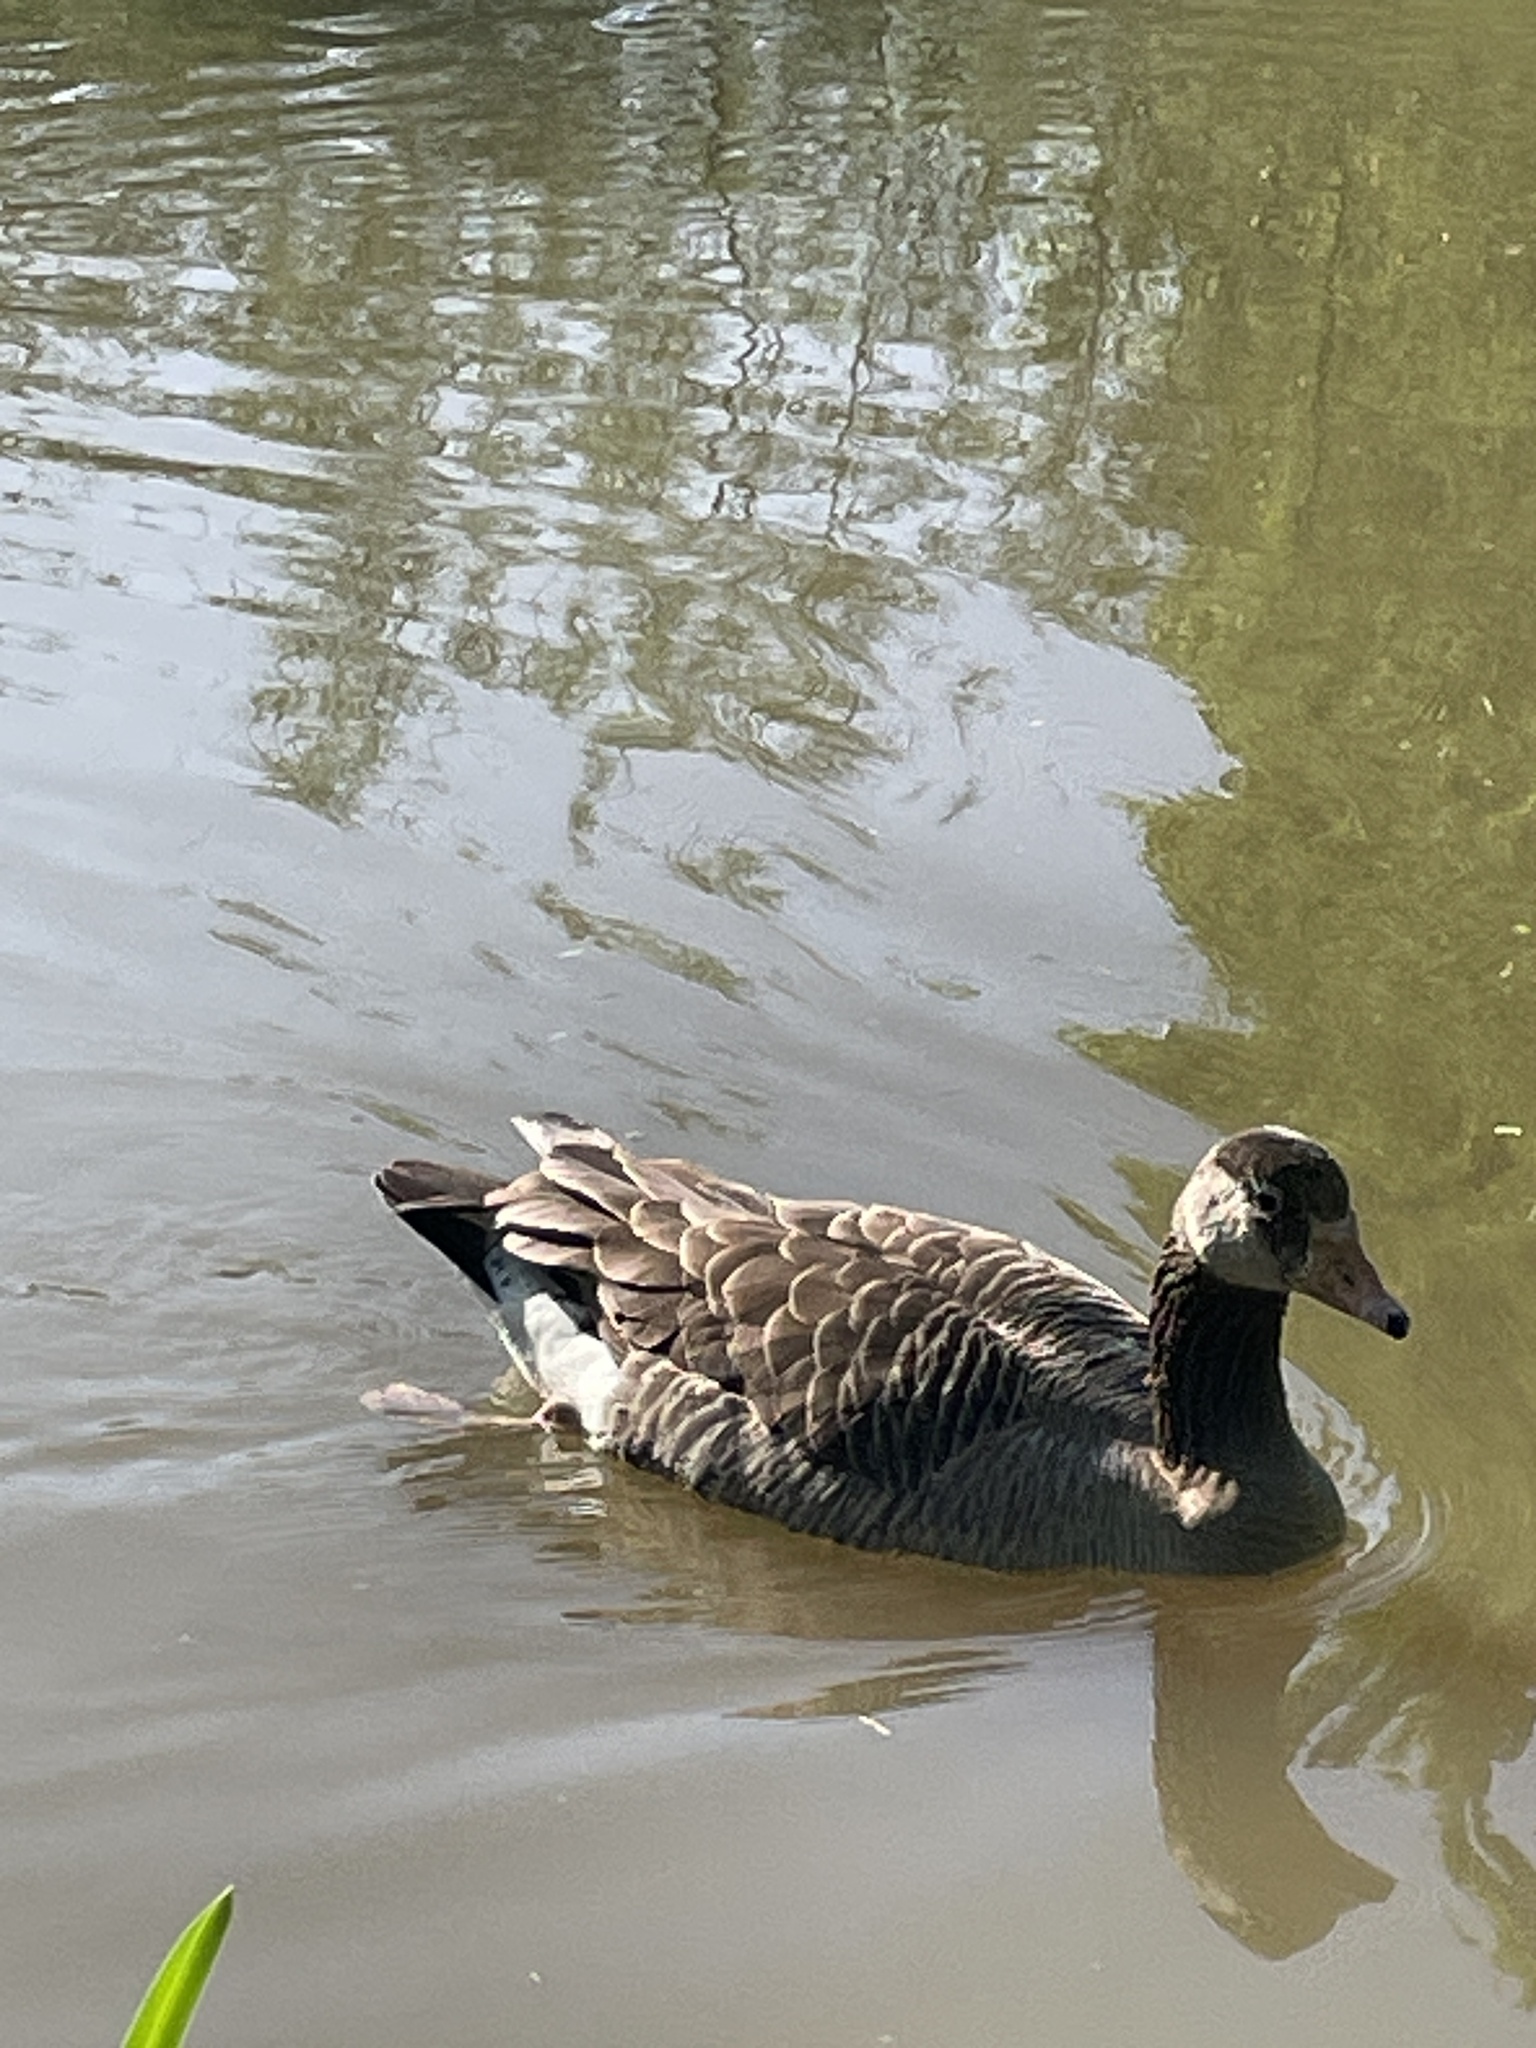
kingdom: Animalia
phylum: Chordata
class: Aves
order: Anseriformes
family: Anatidae
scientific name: Anatidae
